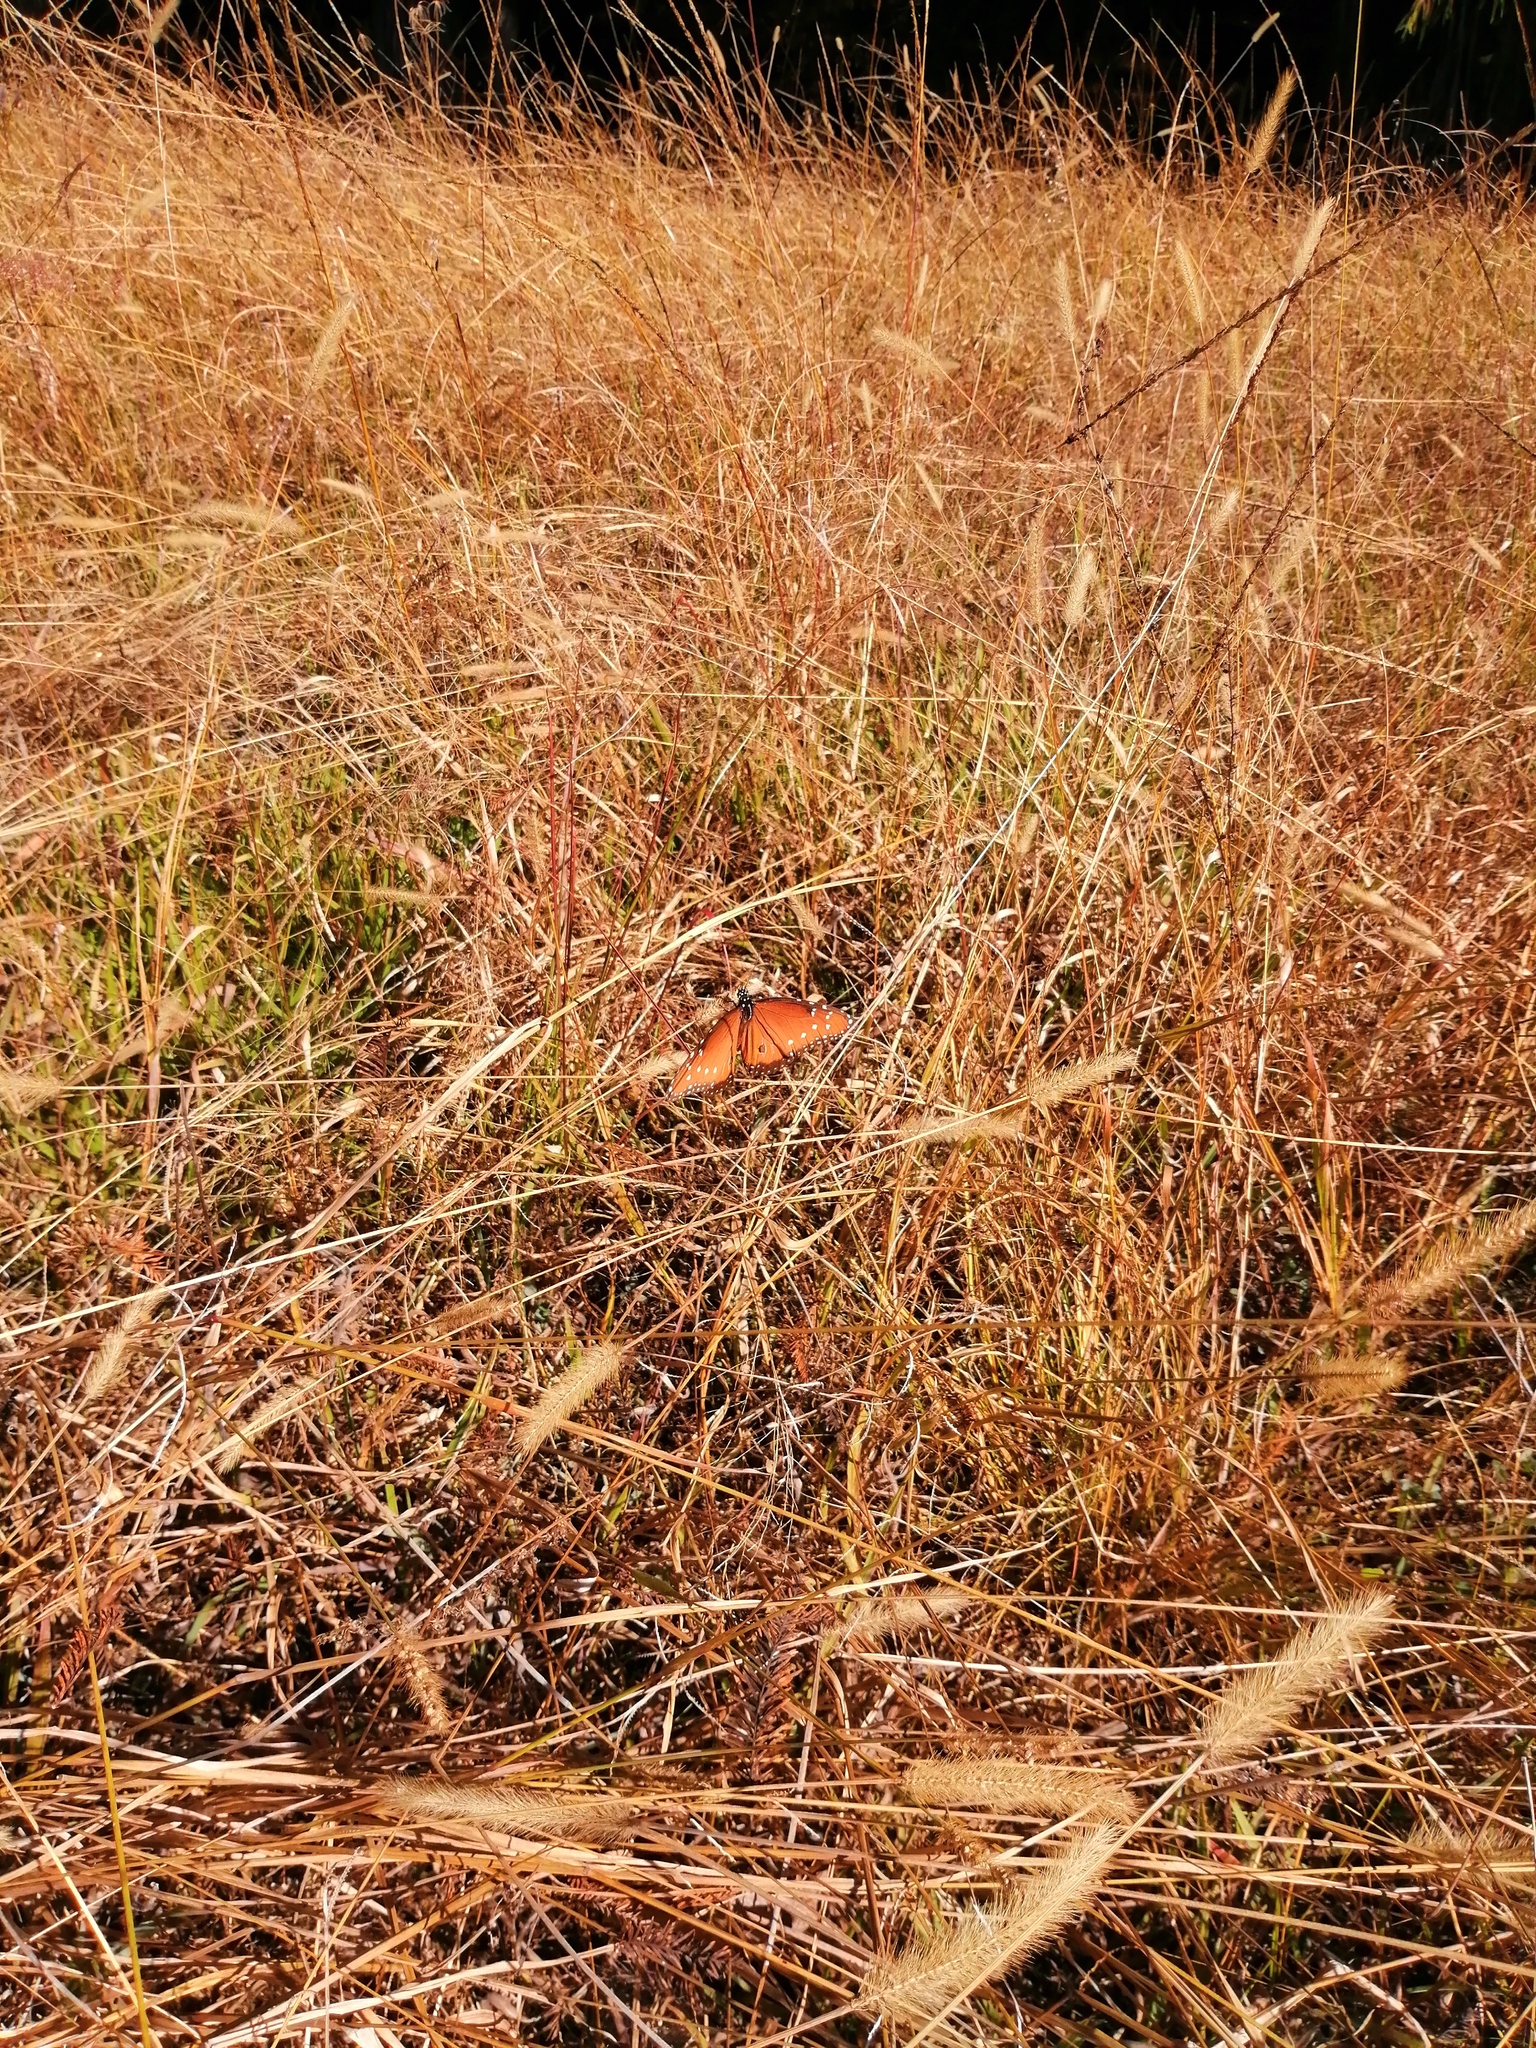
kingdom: Animalia
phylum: Arthropoda
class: Insecta
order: Lepidoptera
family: Nymphalidae
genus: Danaus
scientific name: Danaus gilippus
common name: Queen
